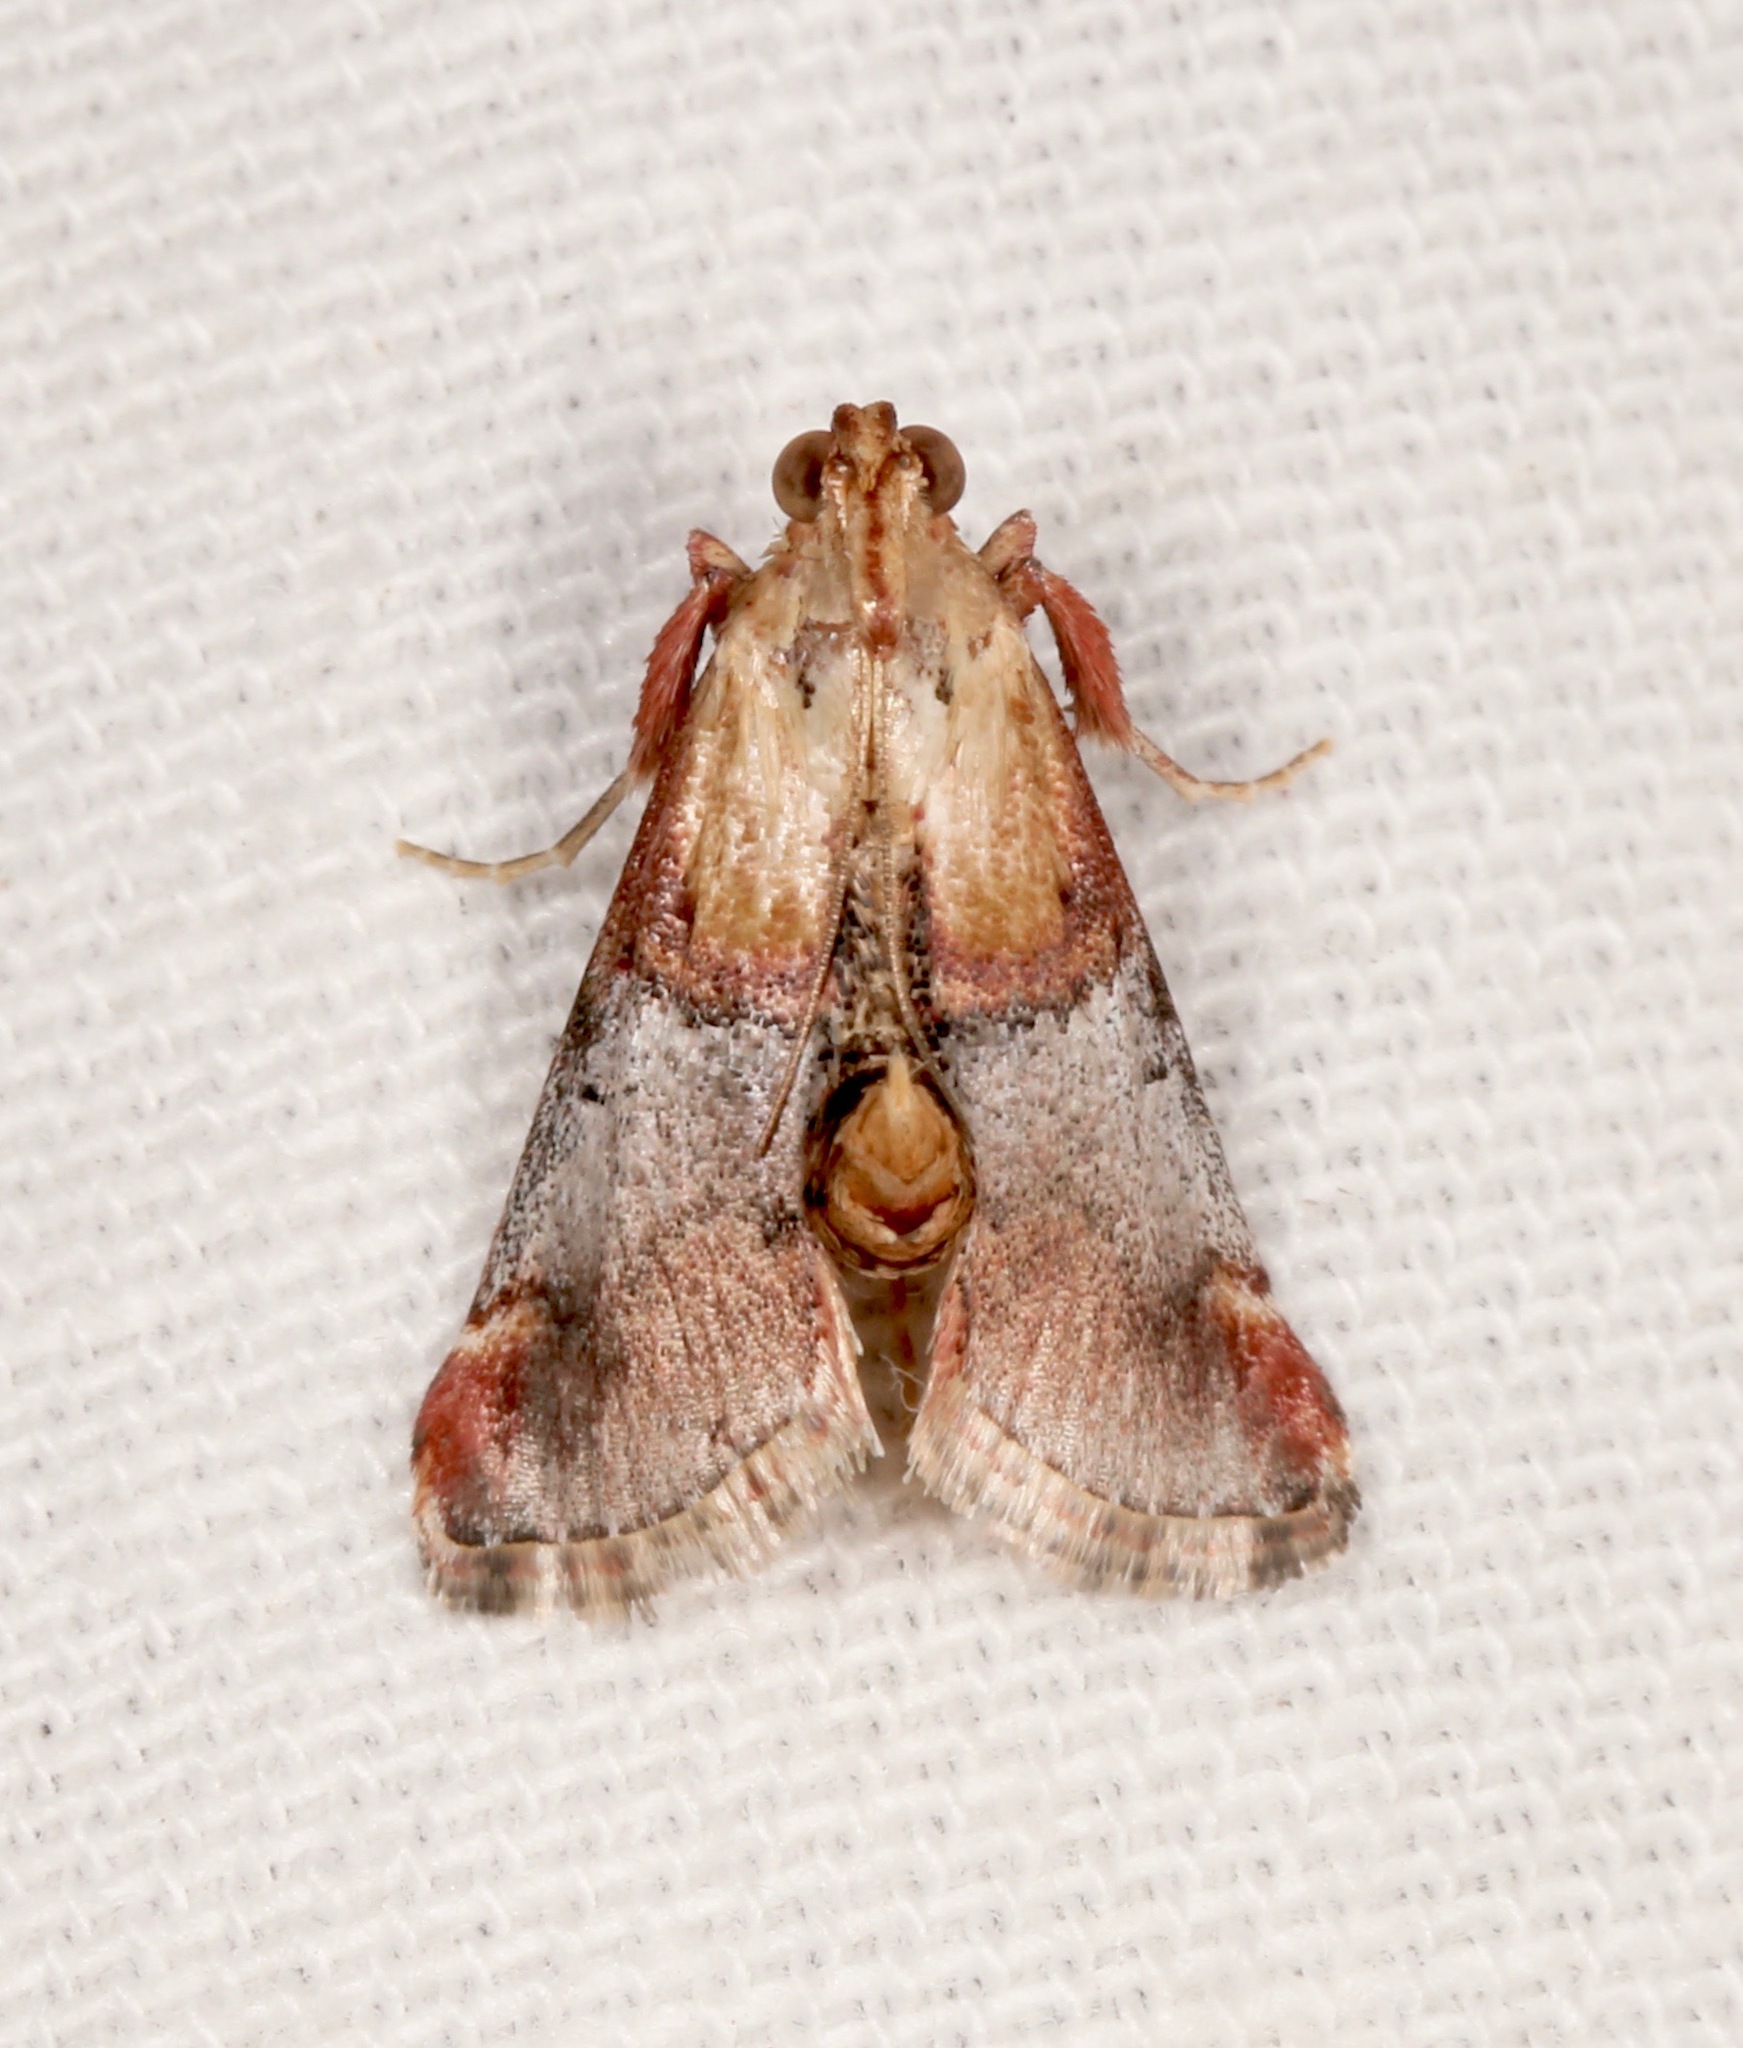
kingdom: Animalia
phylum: Arthropoda
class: Insecta
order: Lepidoptera
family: Pyralidae
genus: Cacozelia
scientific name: Cacozelia basiochrealis
